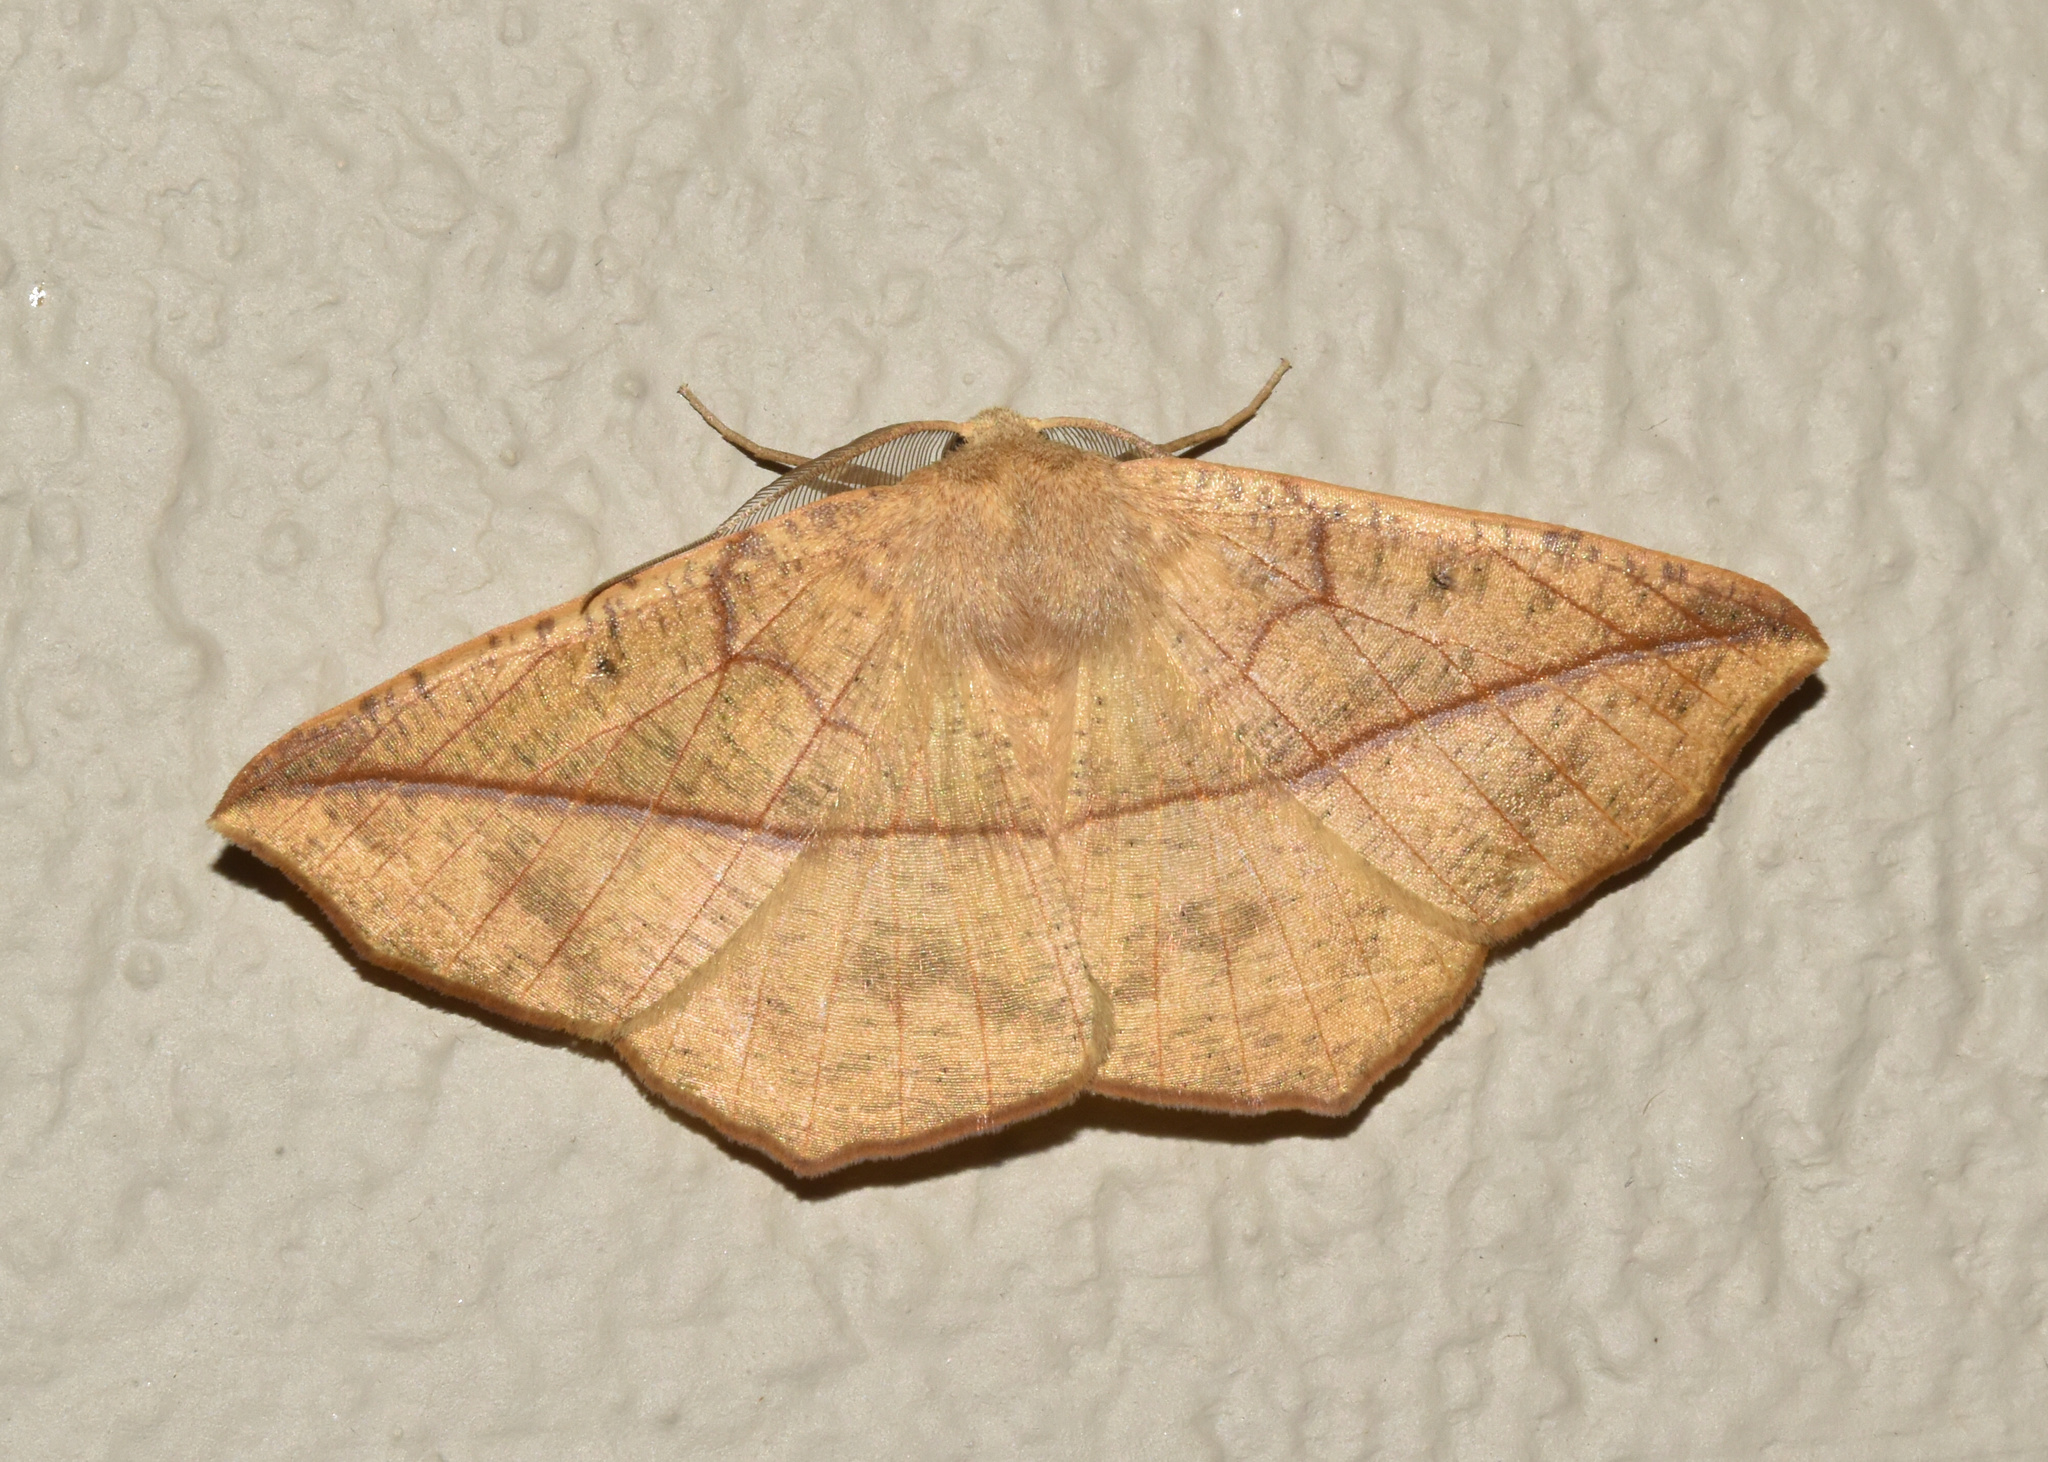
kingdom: Animalia
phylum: Arthropoda
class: Insecta
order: Lepidoptera
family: Geometridae
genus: Psilocerea
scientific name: Psilocerea pulverosa
